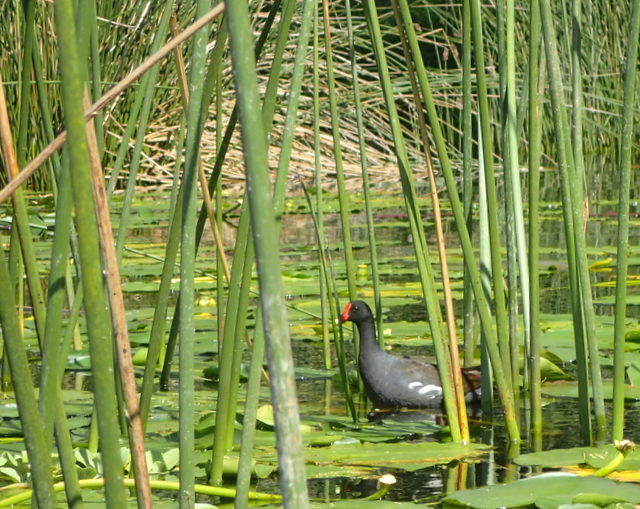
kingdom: Animalia
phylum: Chordata
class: Aves
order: Gruiformes
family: Rallidae
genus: Gallinula
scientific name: Gallinula chloropus
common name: Common moorhen
